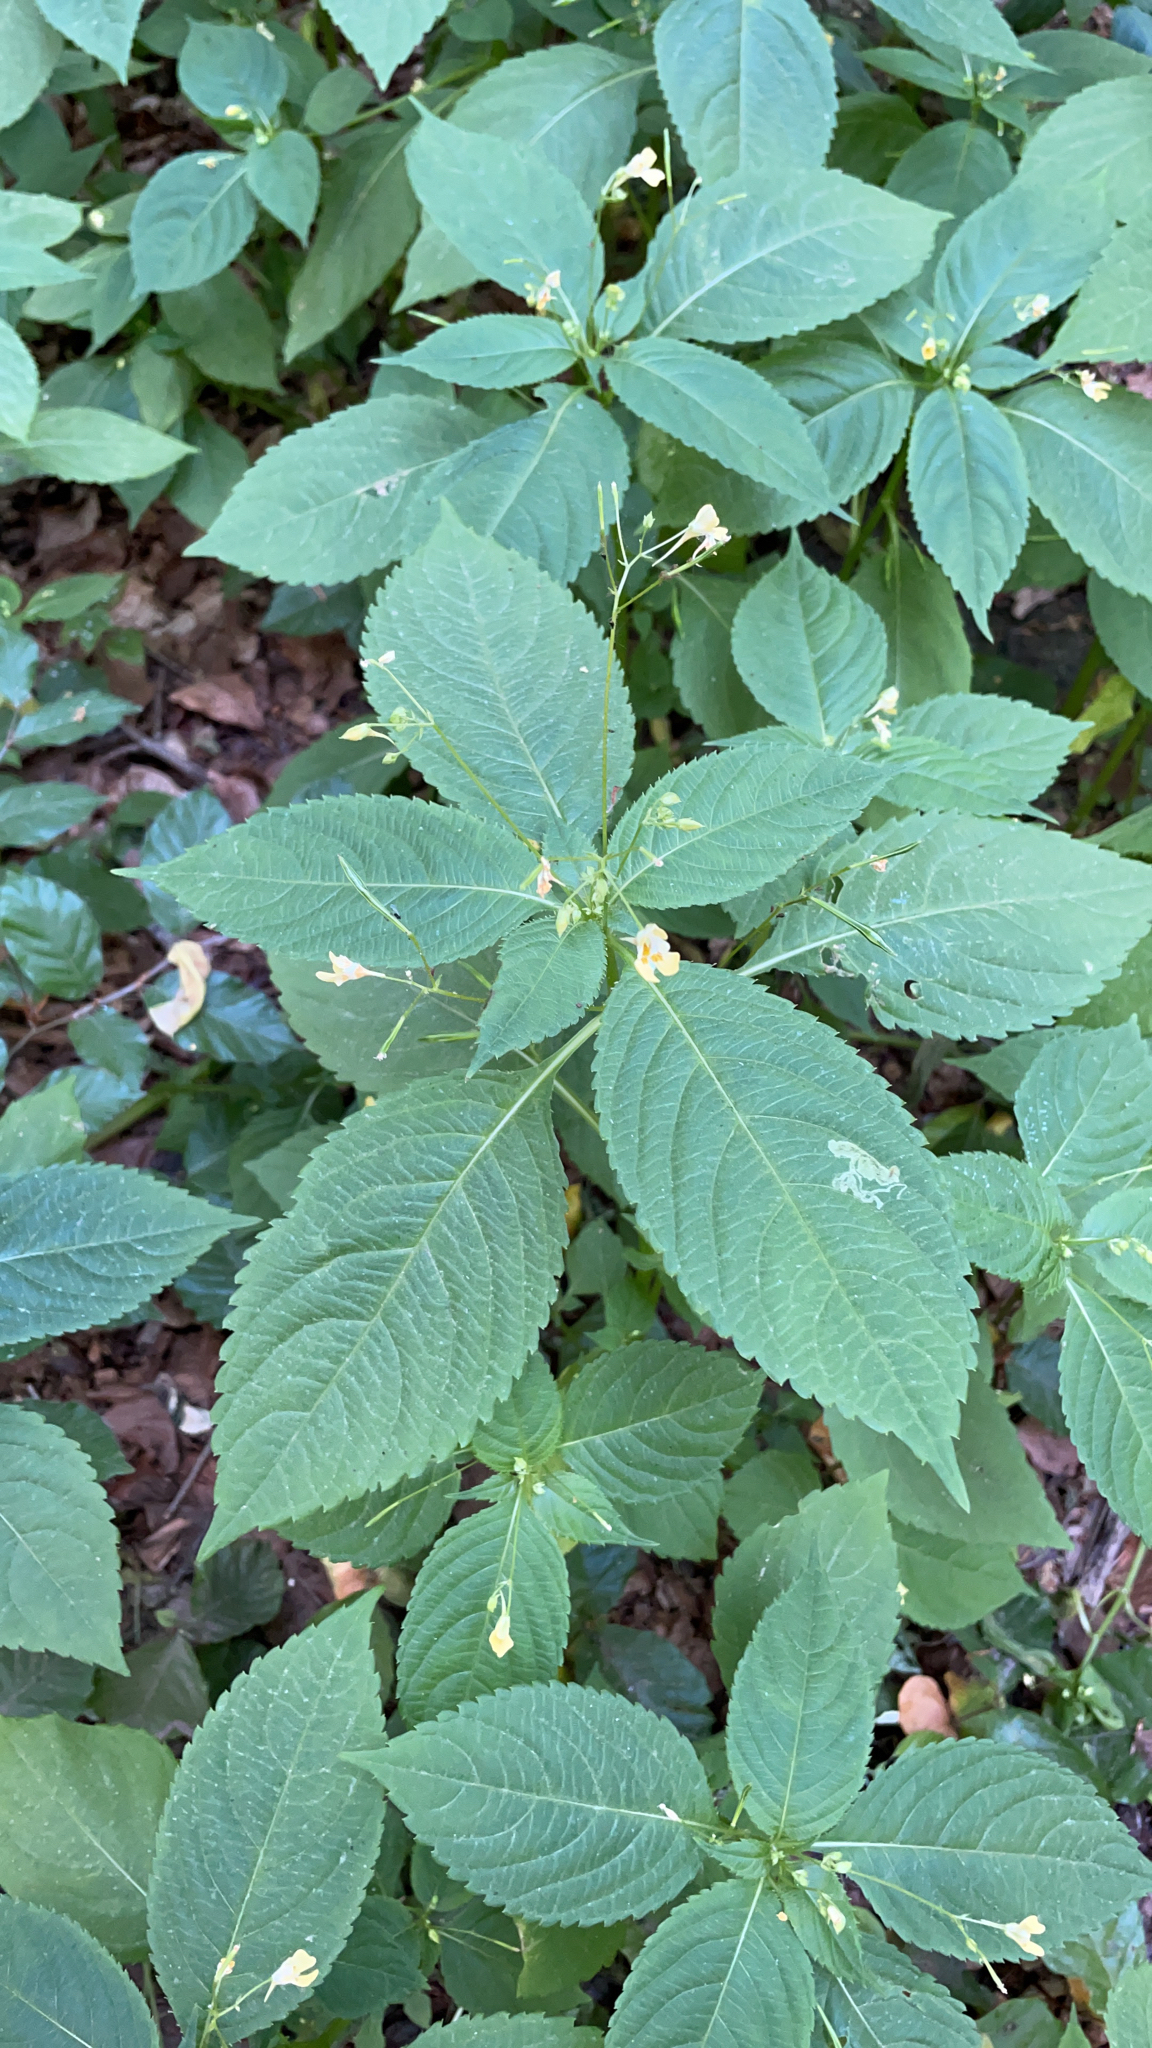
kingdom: Plantae
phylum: Tracheophyta
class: Magnoliopsida
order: Ericales
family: Balsaminaceae
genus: Impatiens
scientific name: Impatiens parviflora
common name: Small balsam
